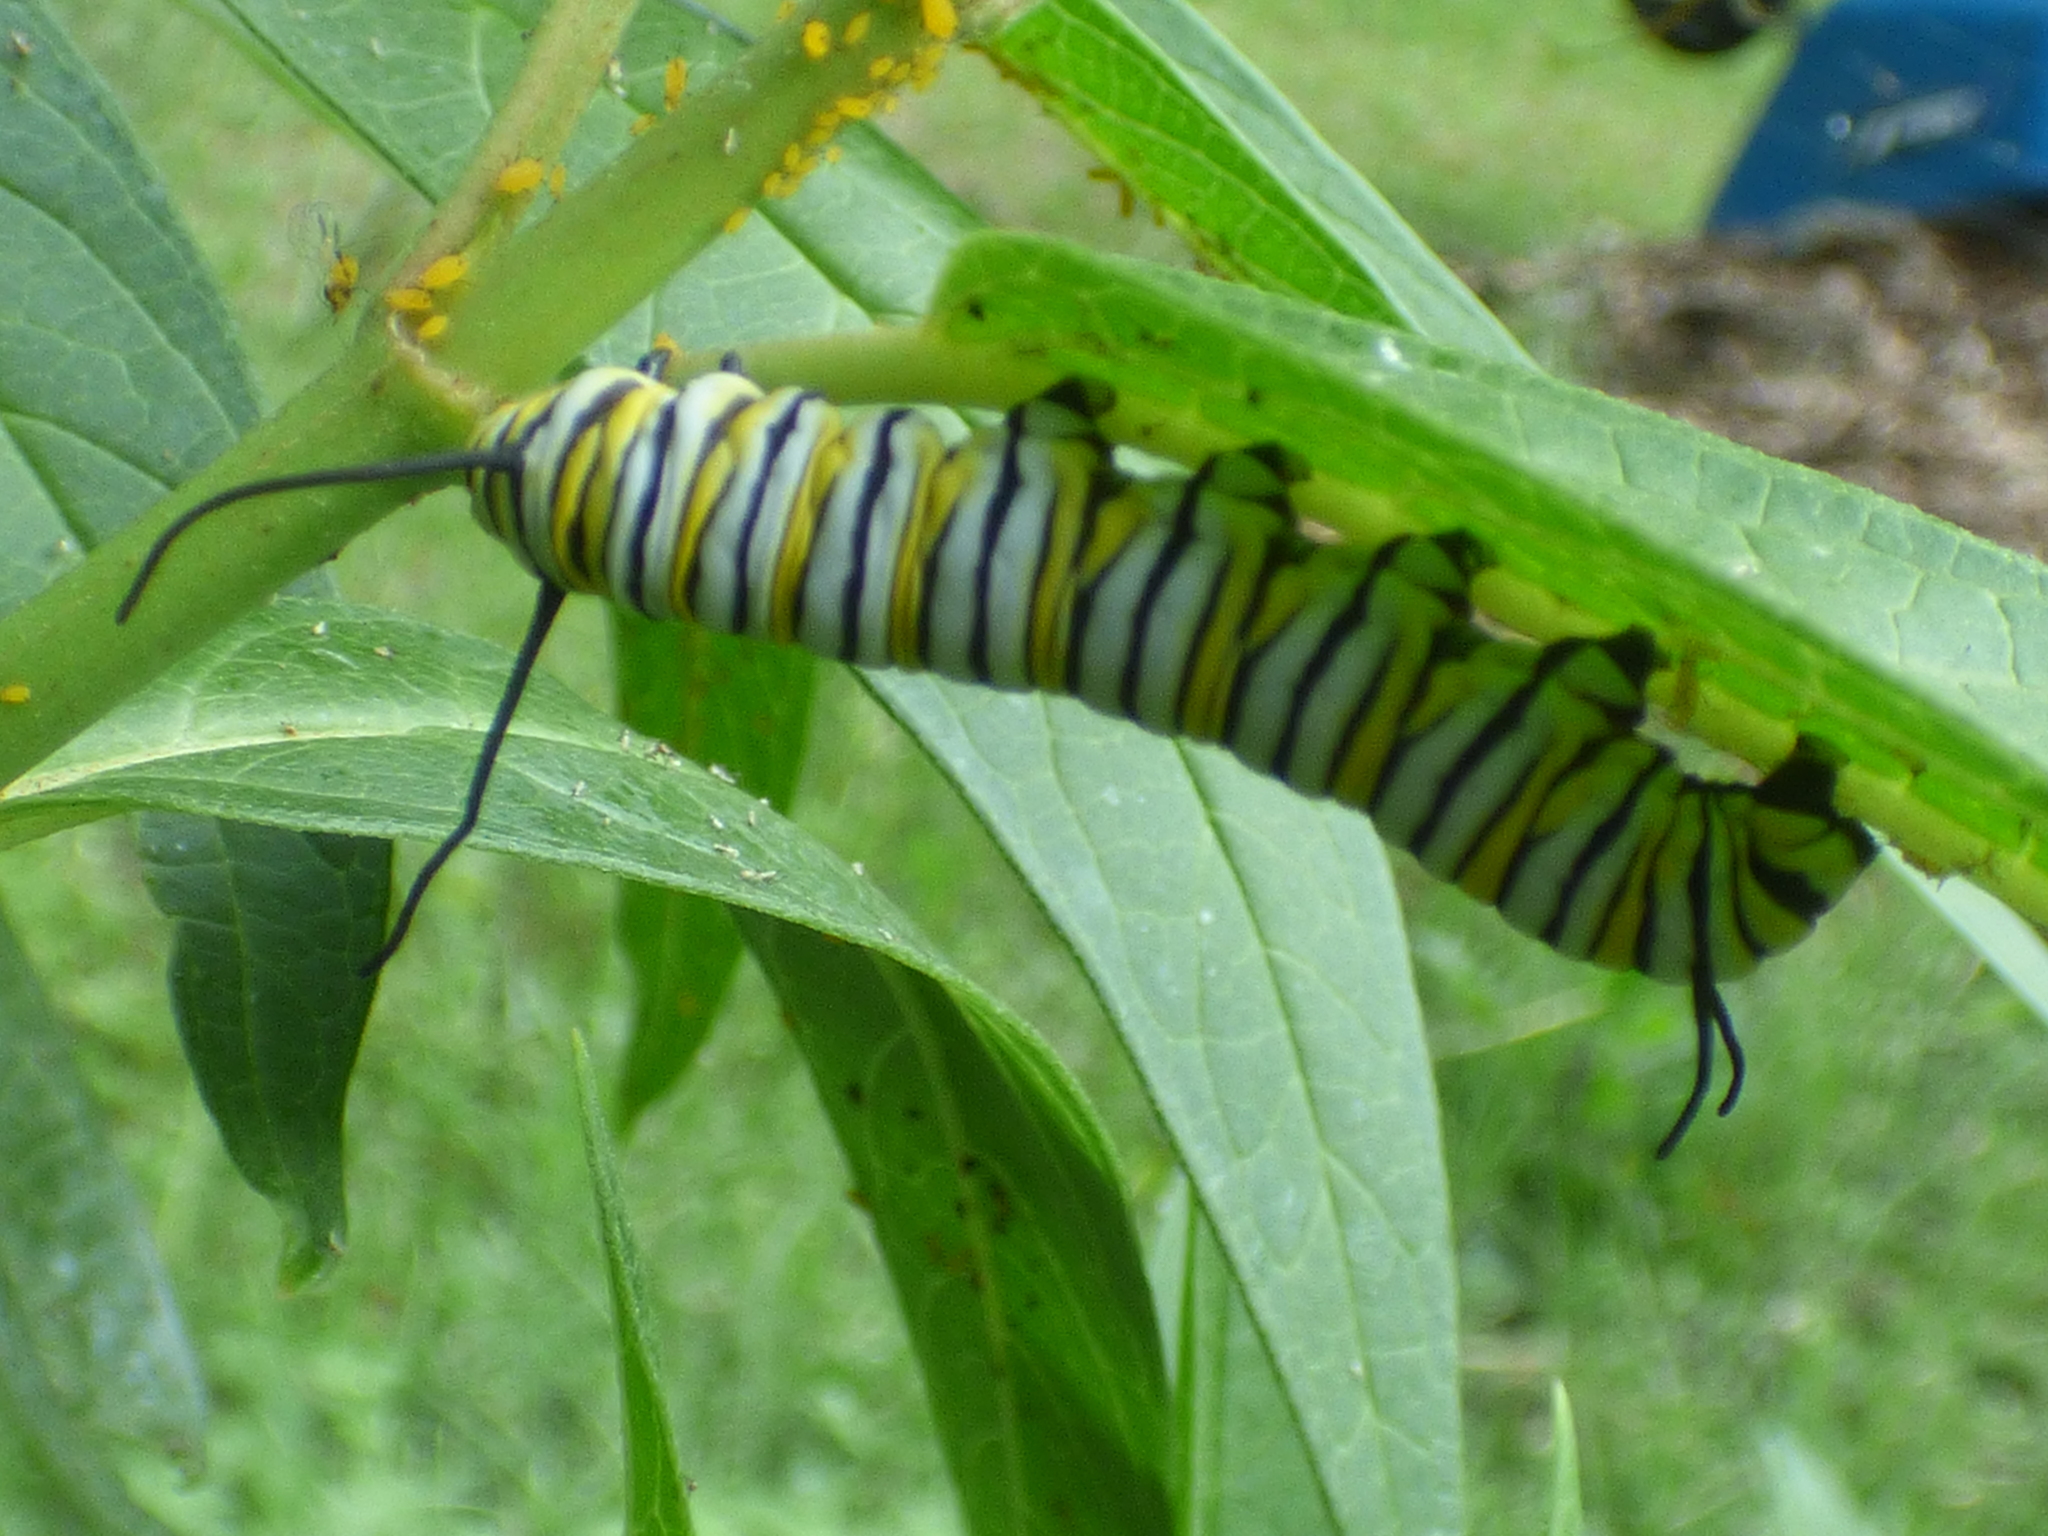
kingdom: Animalia
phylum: Arthropoda
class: Insecta
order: Lepidoptera
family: Nymphalidae
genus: Danaus
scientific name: Danaus plexippus
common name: Monarch
